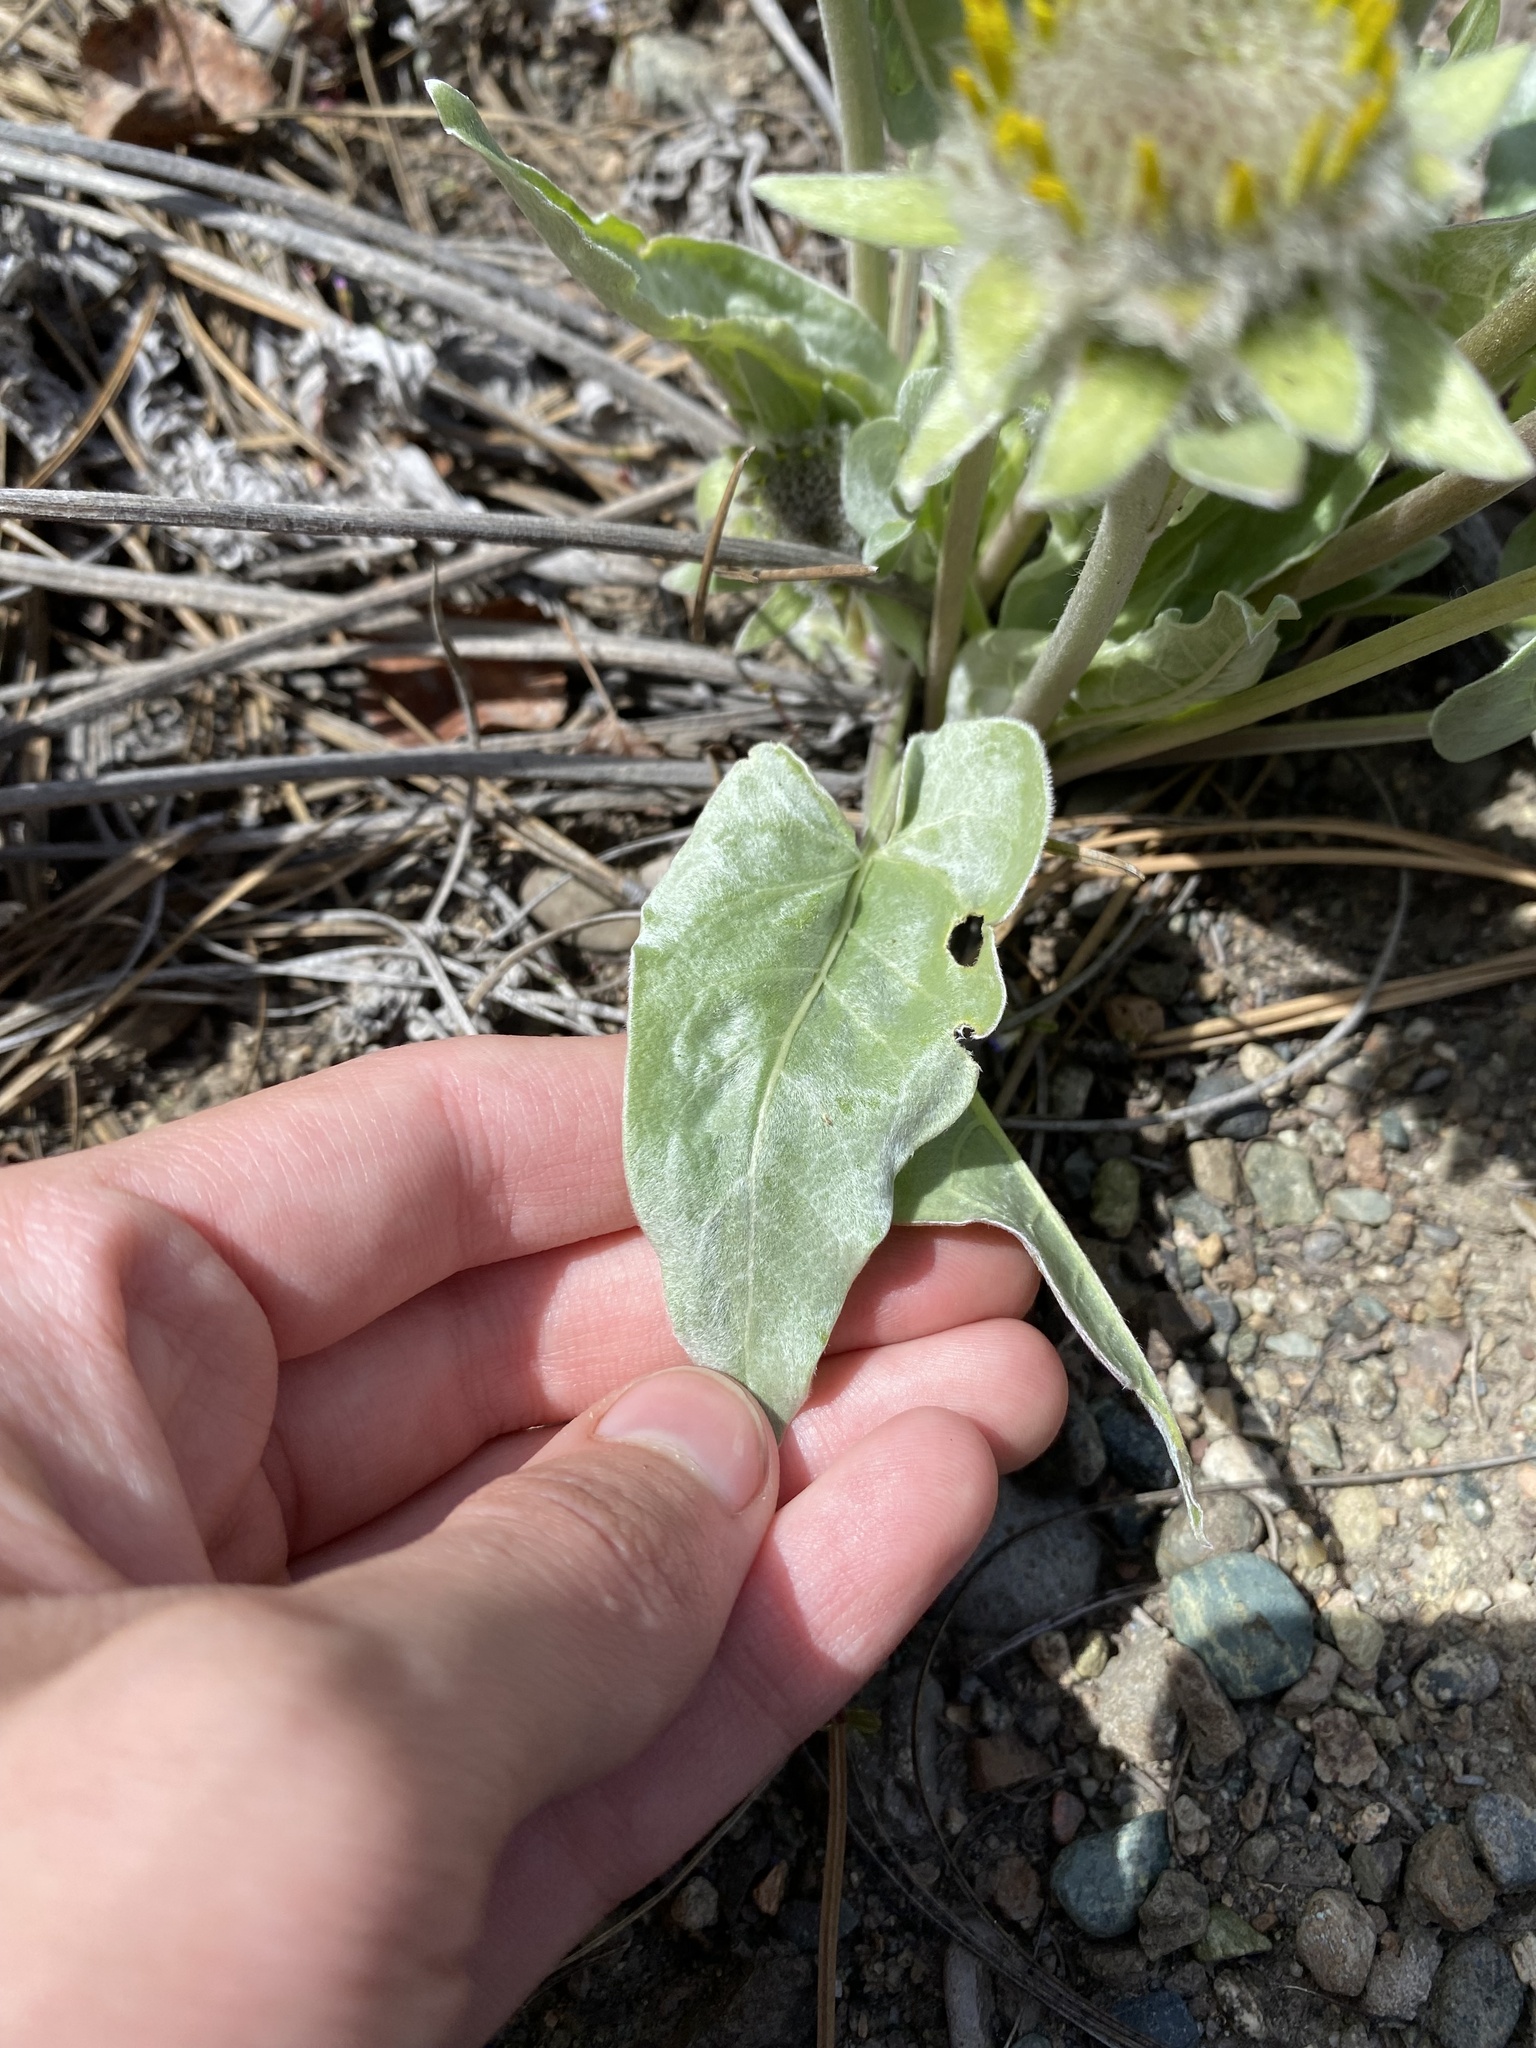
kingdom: Plantae
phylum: Tracheophyta
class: Magnoliopsida
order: Asterales
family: Asteraceae
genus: Wyethia
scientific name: Wyethia sagittata
